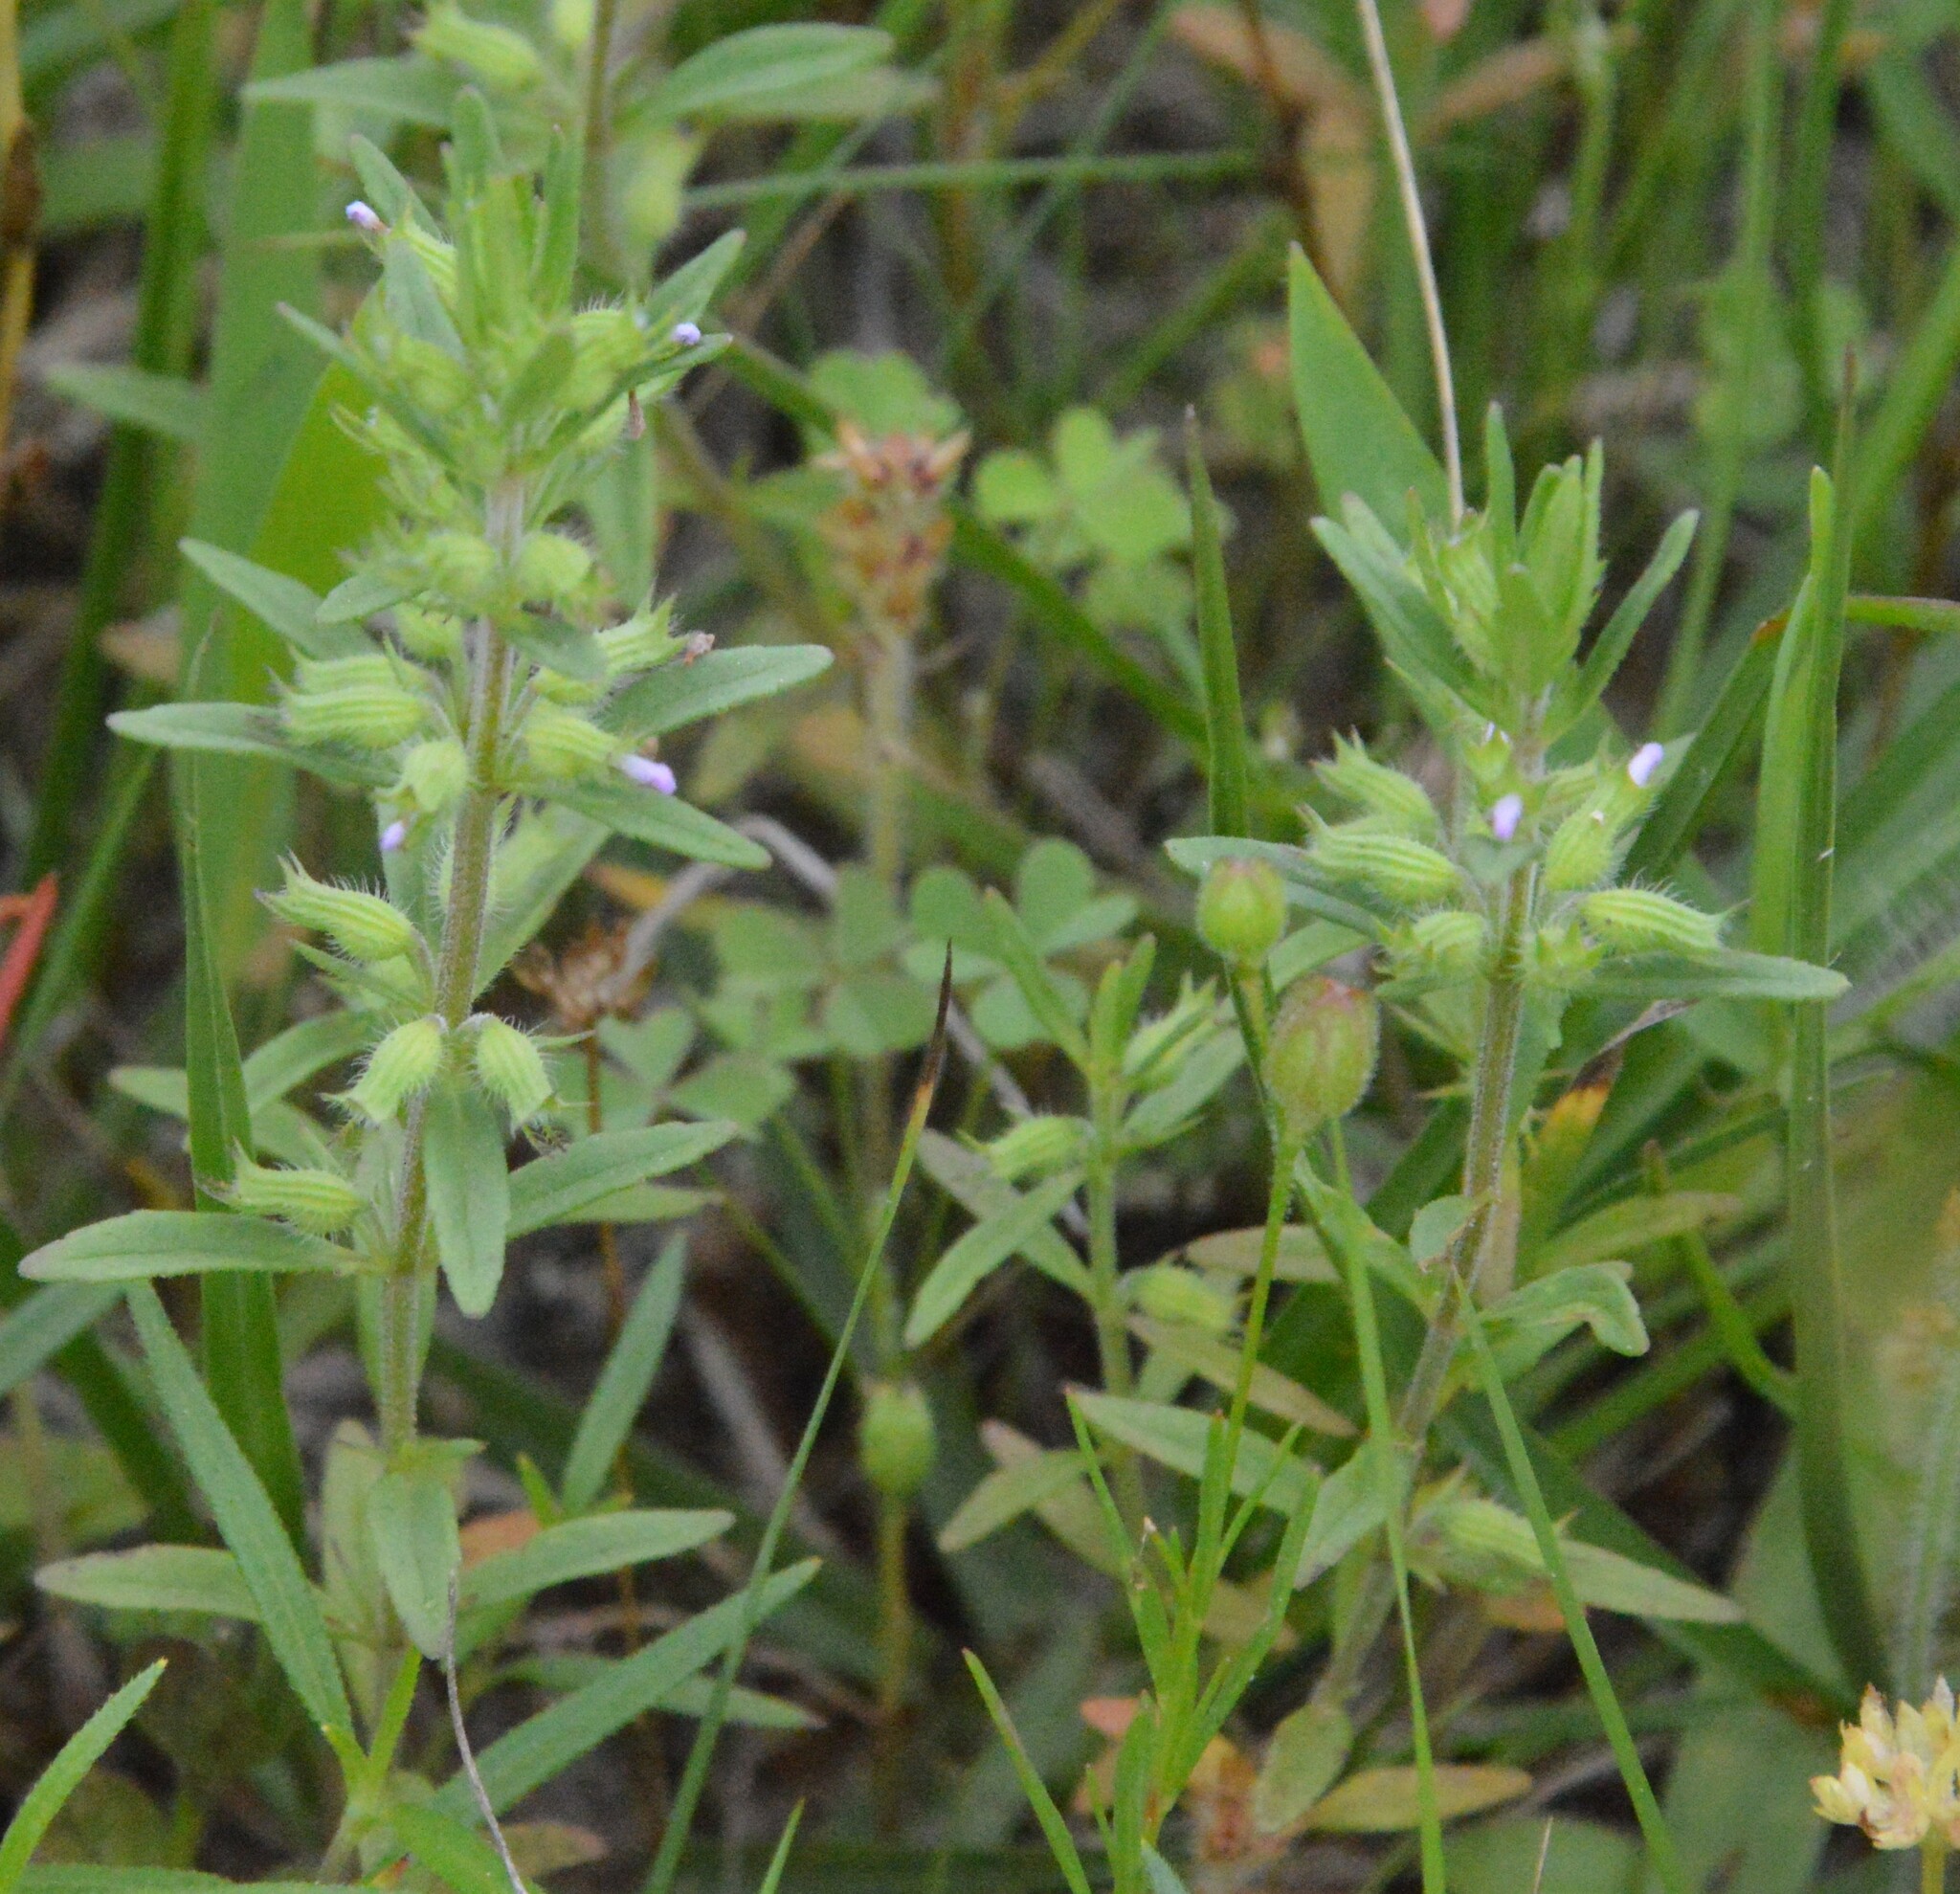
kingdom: Plantae
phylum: Tracheophyta
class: Magnoliopsida
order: Lamiales
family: Lamiaceae
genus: Hedeoma
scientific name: Hedeoma hispida
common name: Mock pennyroyal
